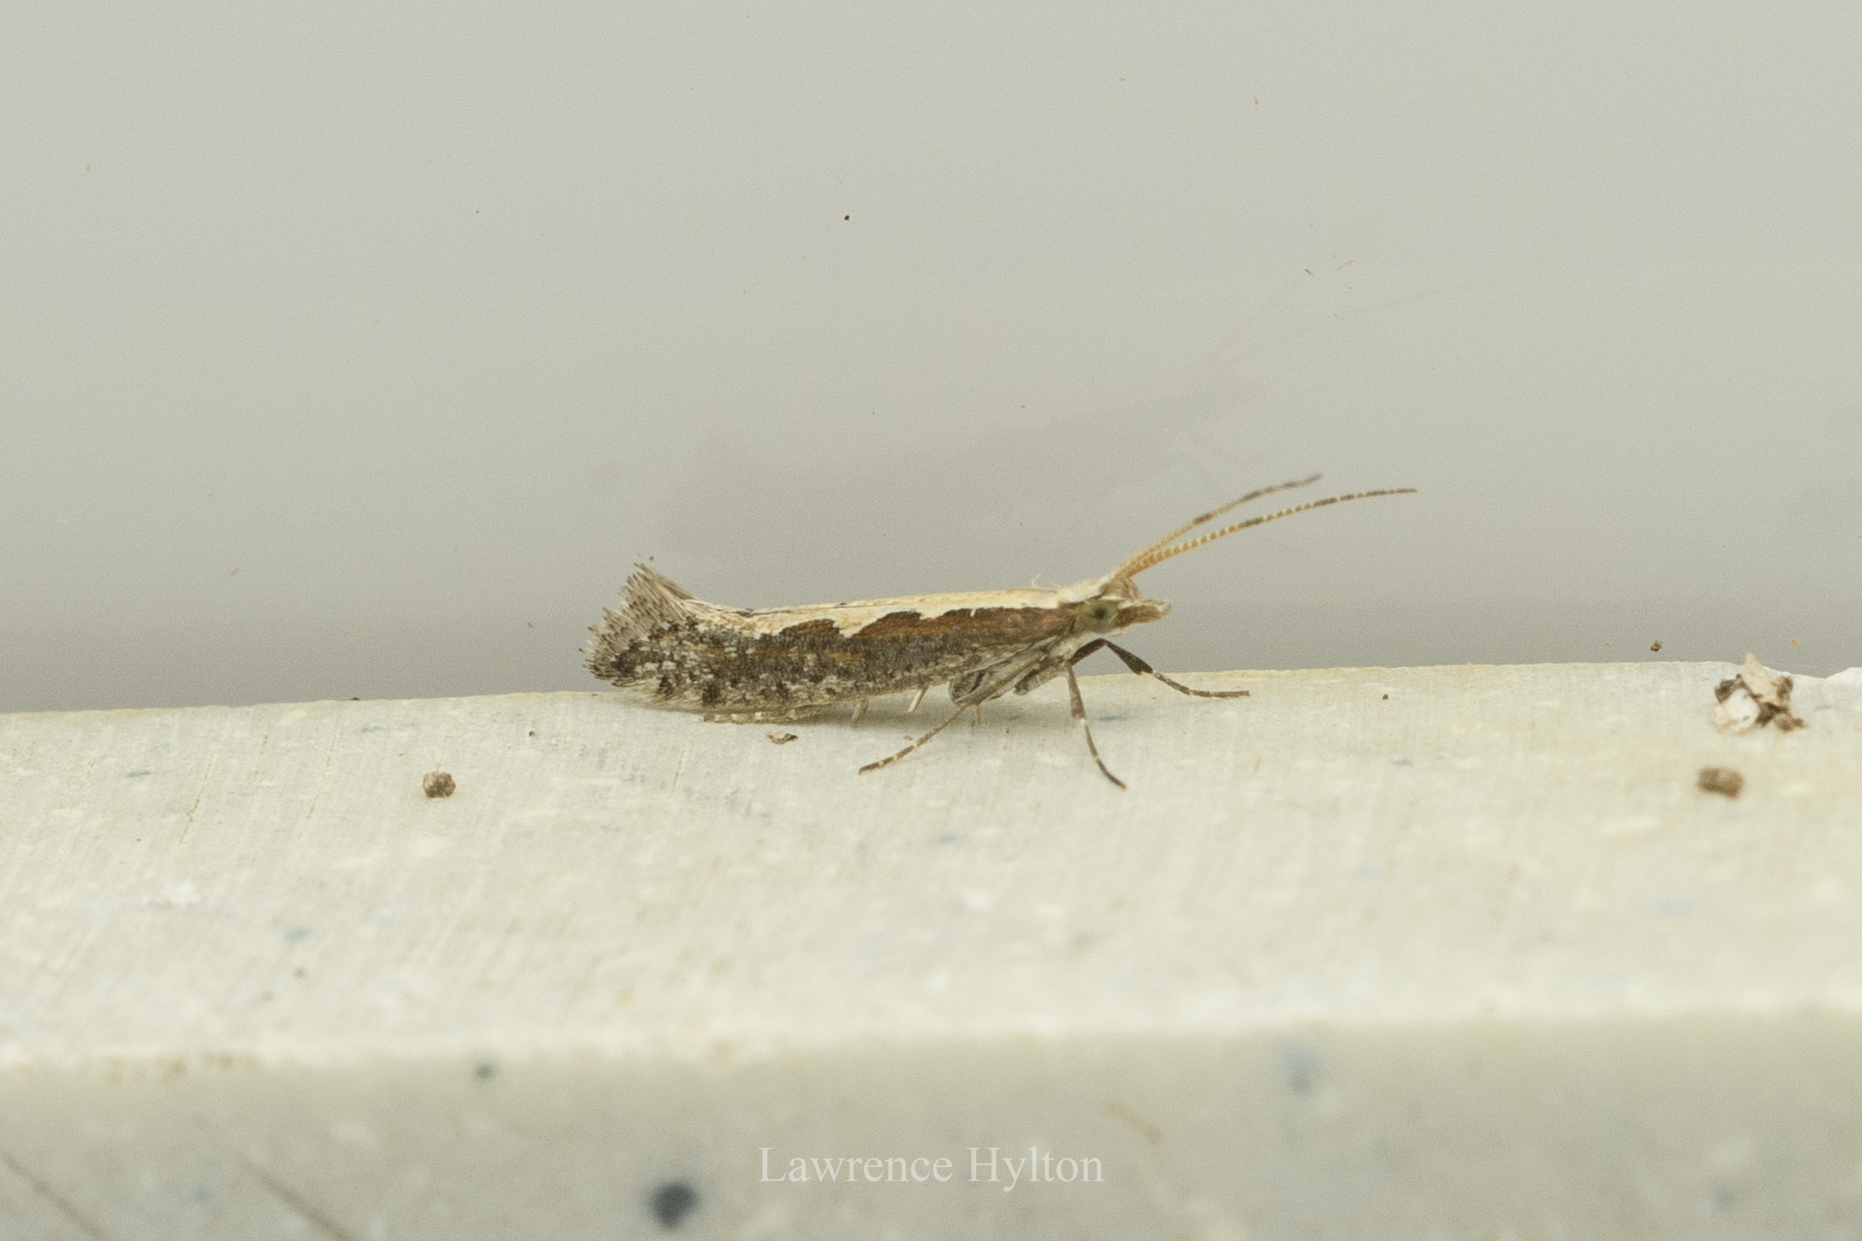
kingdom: Animalia
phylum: Arthropoda
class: Insecta
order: Lepidoptera
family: Plutellidae
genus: Plutella
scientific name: Plutella xylostella
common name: Diamond-back moth
